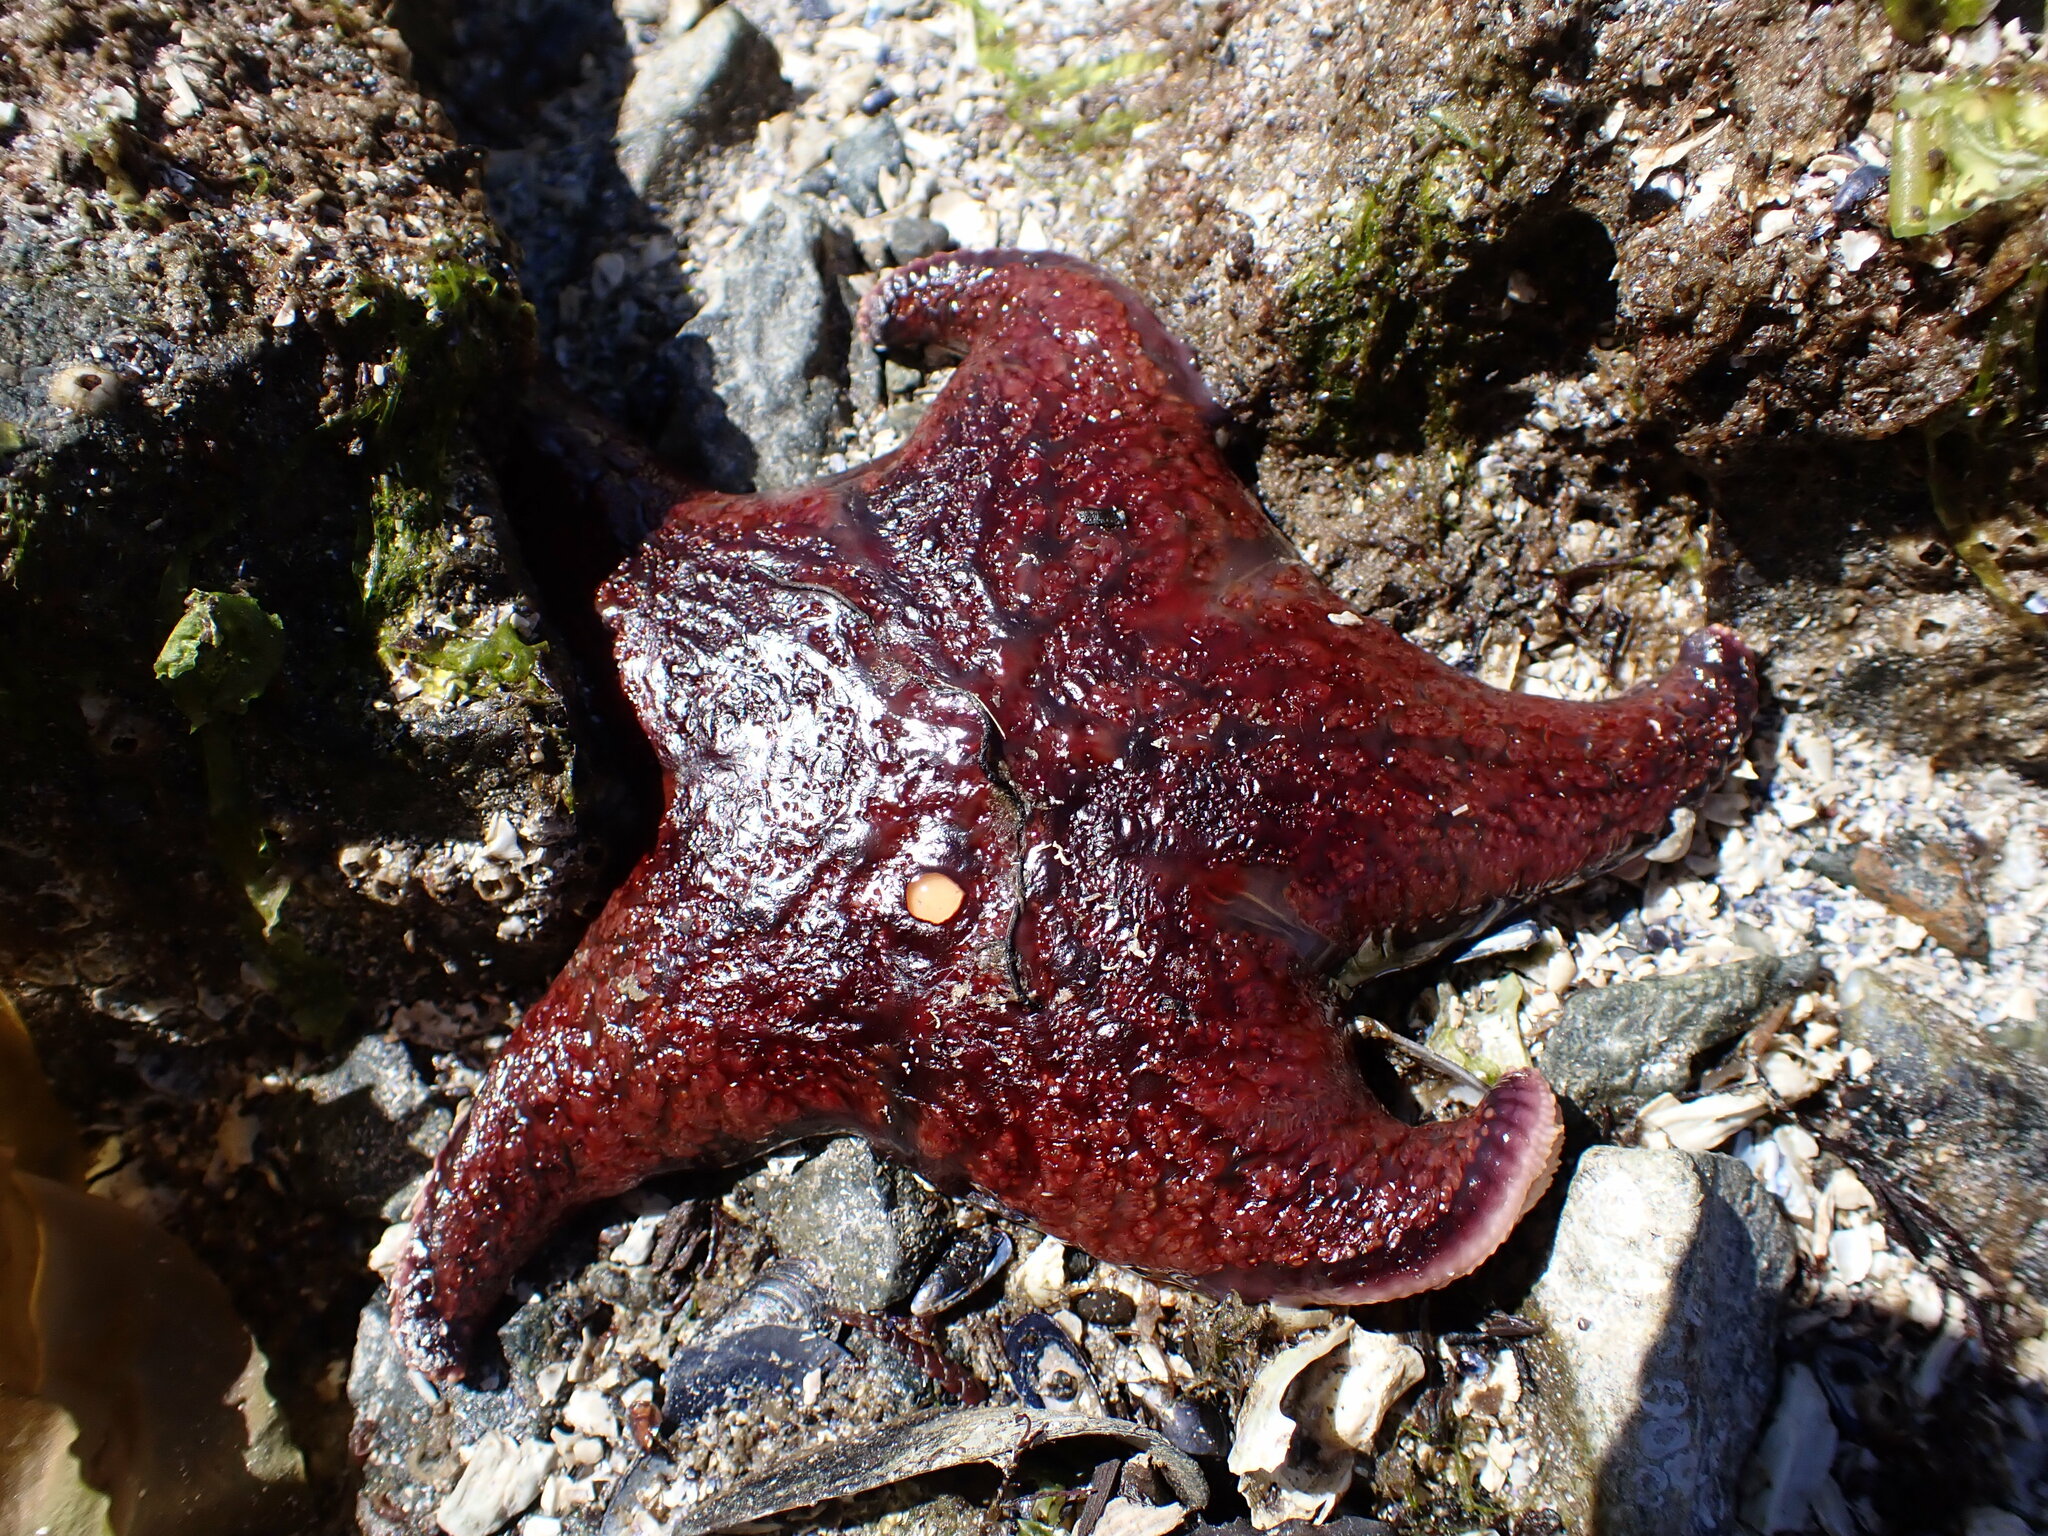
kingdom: Animalia
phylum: Echinodermata
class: Asteroidea
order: Valvatida
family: Asteropseidae
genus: Dermasterias
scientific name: Dermasterias imbricata
